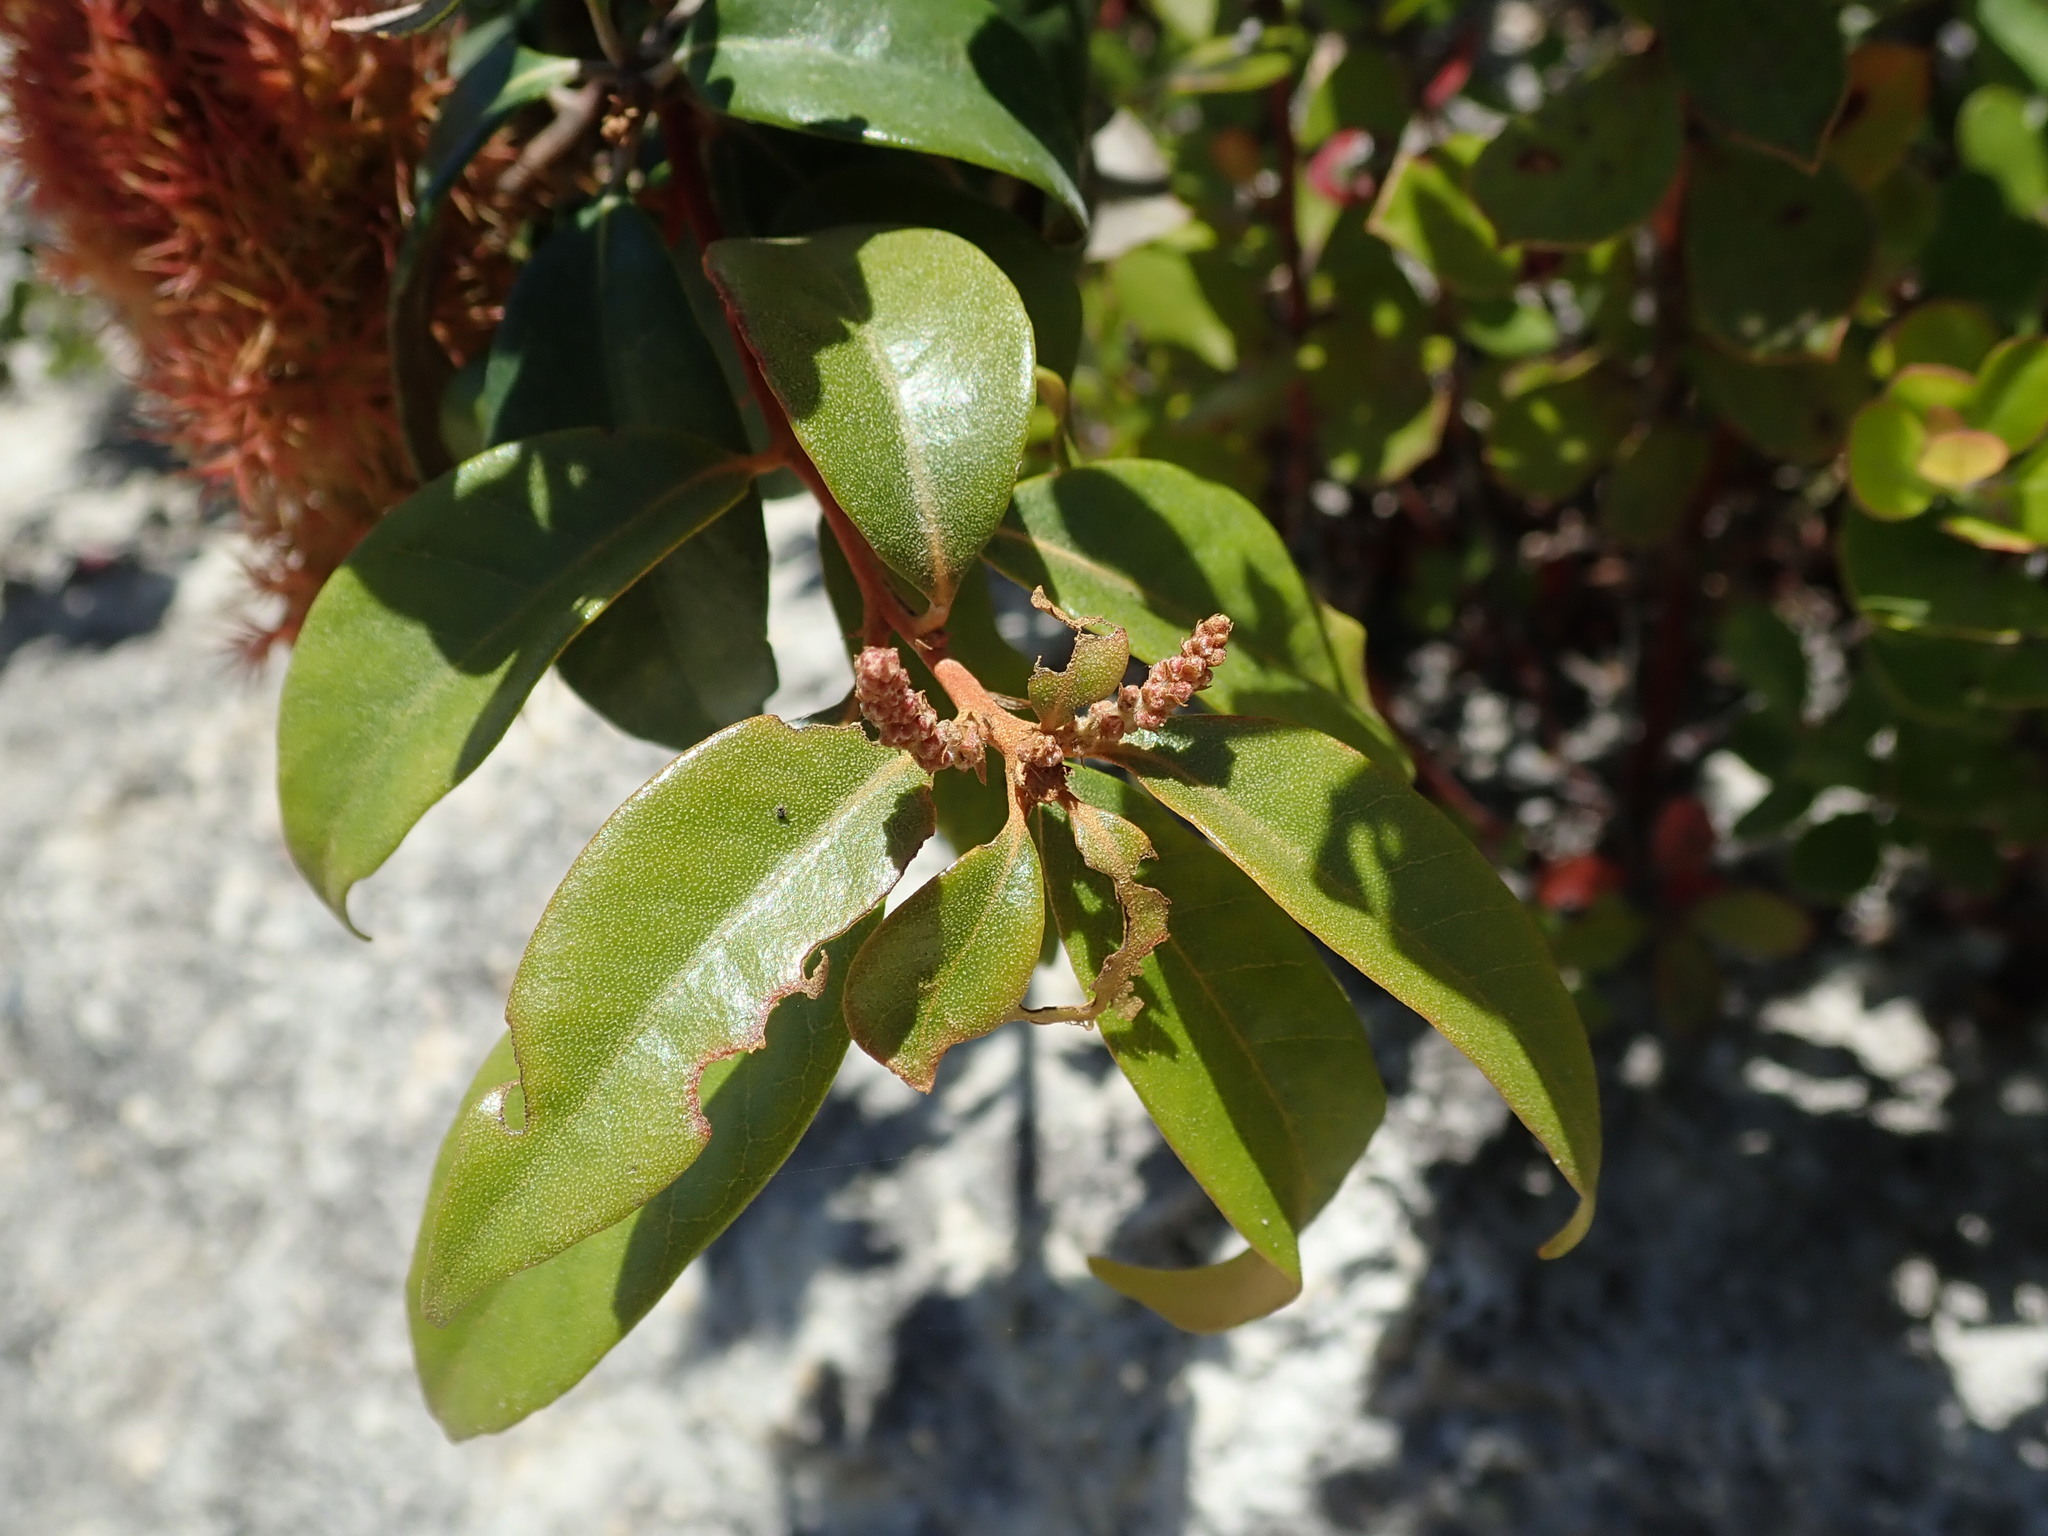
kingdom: Plantae
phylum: Tracheophyta
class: Magnoliopsida
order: Fagales
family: Fagaceae
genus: Chrysolepis
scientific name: Chrysolepis chrysophylla
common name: Giant chinquapin
